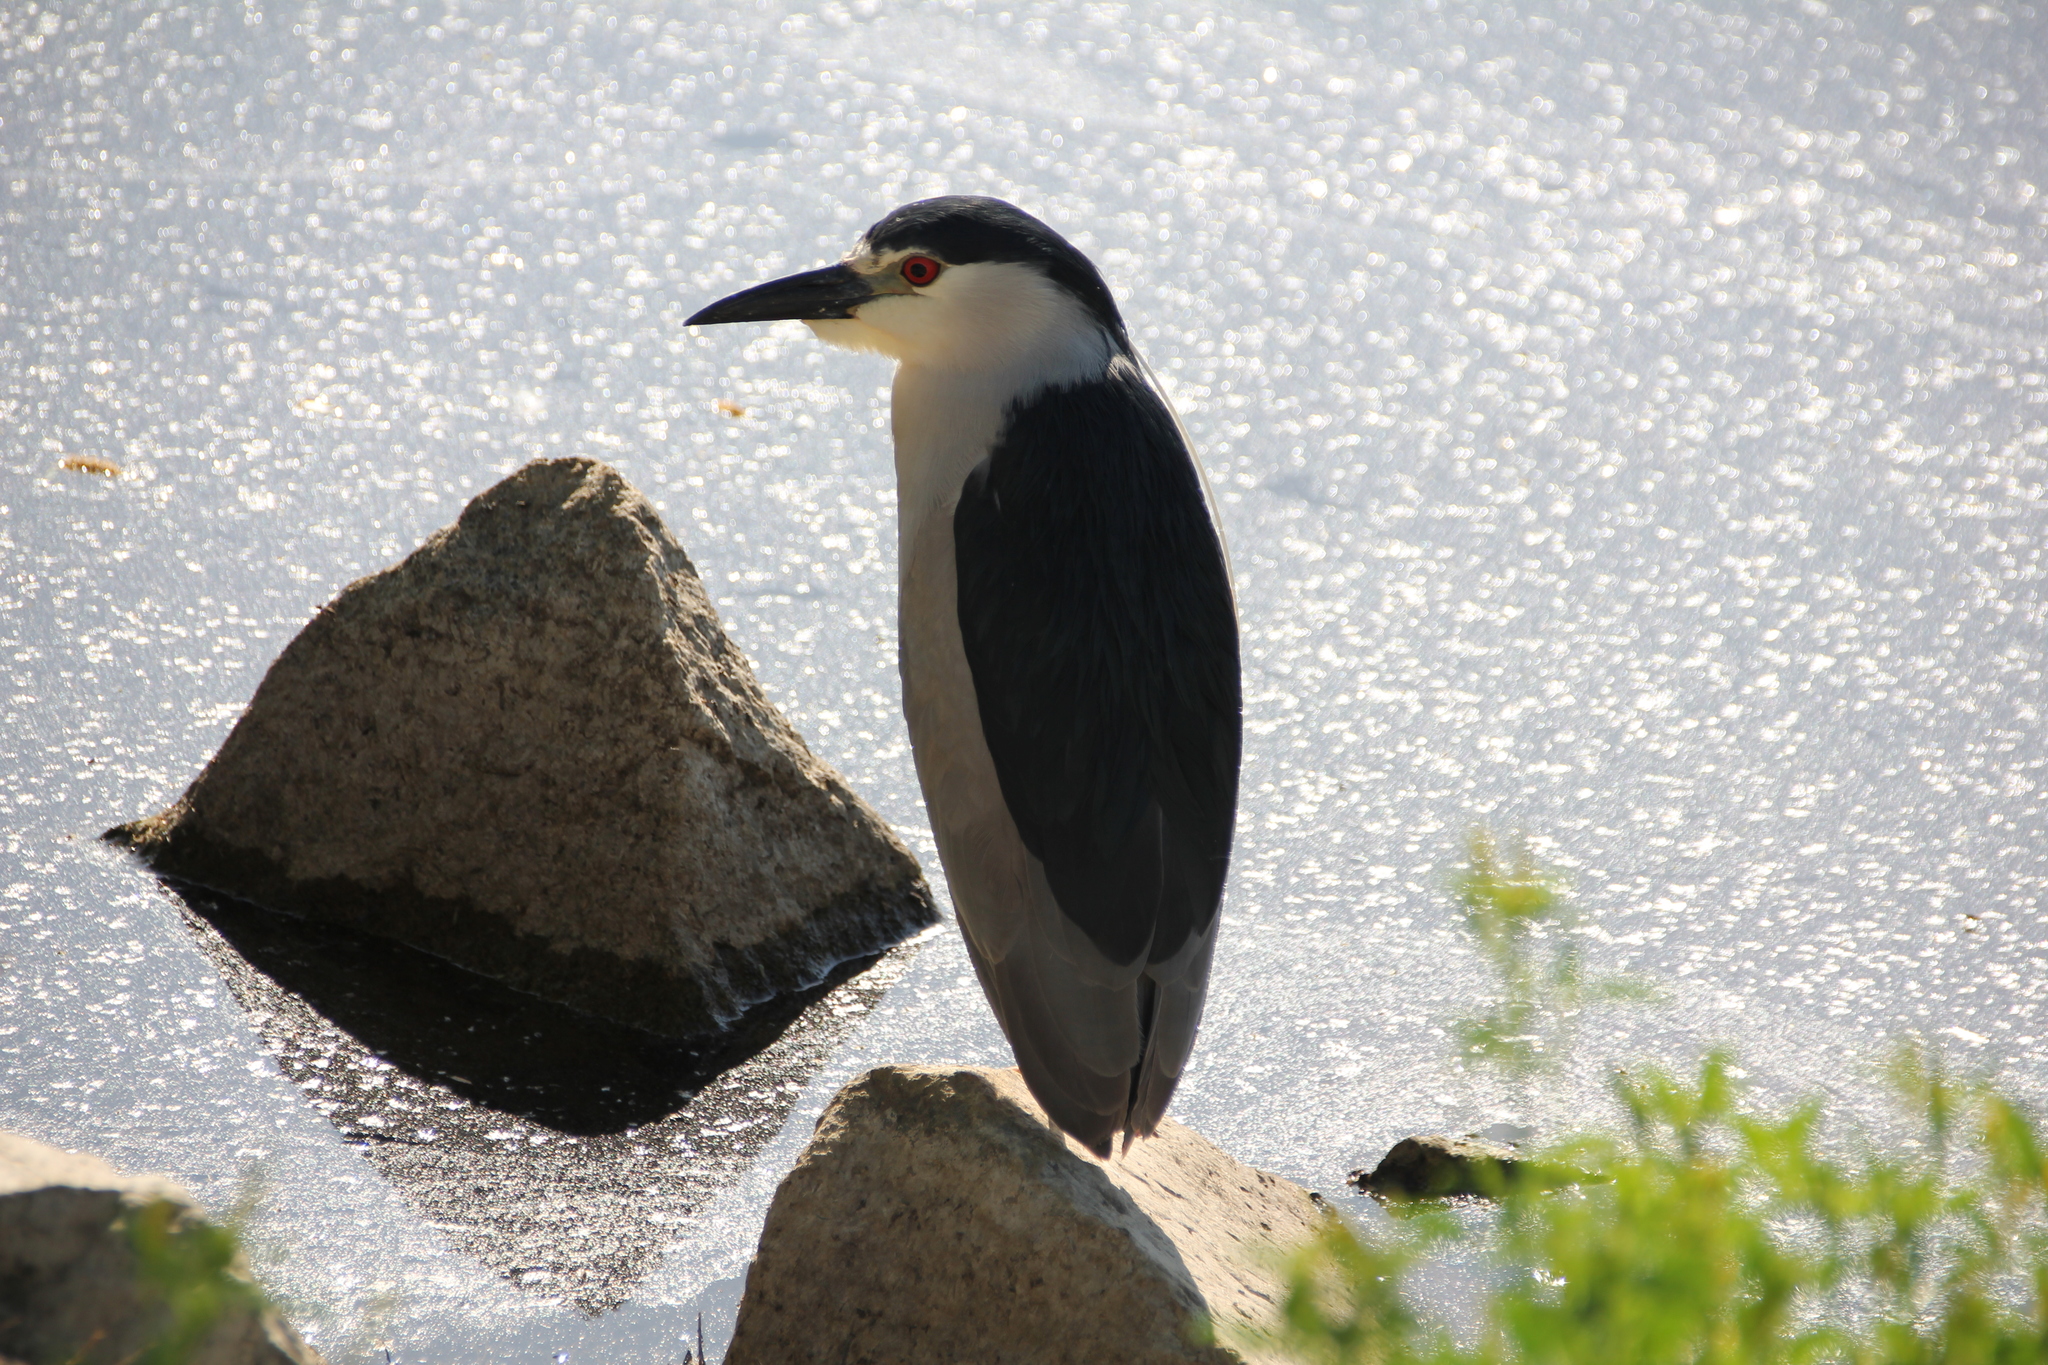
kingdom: Animalia
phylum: Chordata
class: Aves
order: Pelecaniformes
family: Ardeidae
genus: Nycticorax
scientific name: Nycticorax nycticorax
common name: Black-crowned night heron
